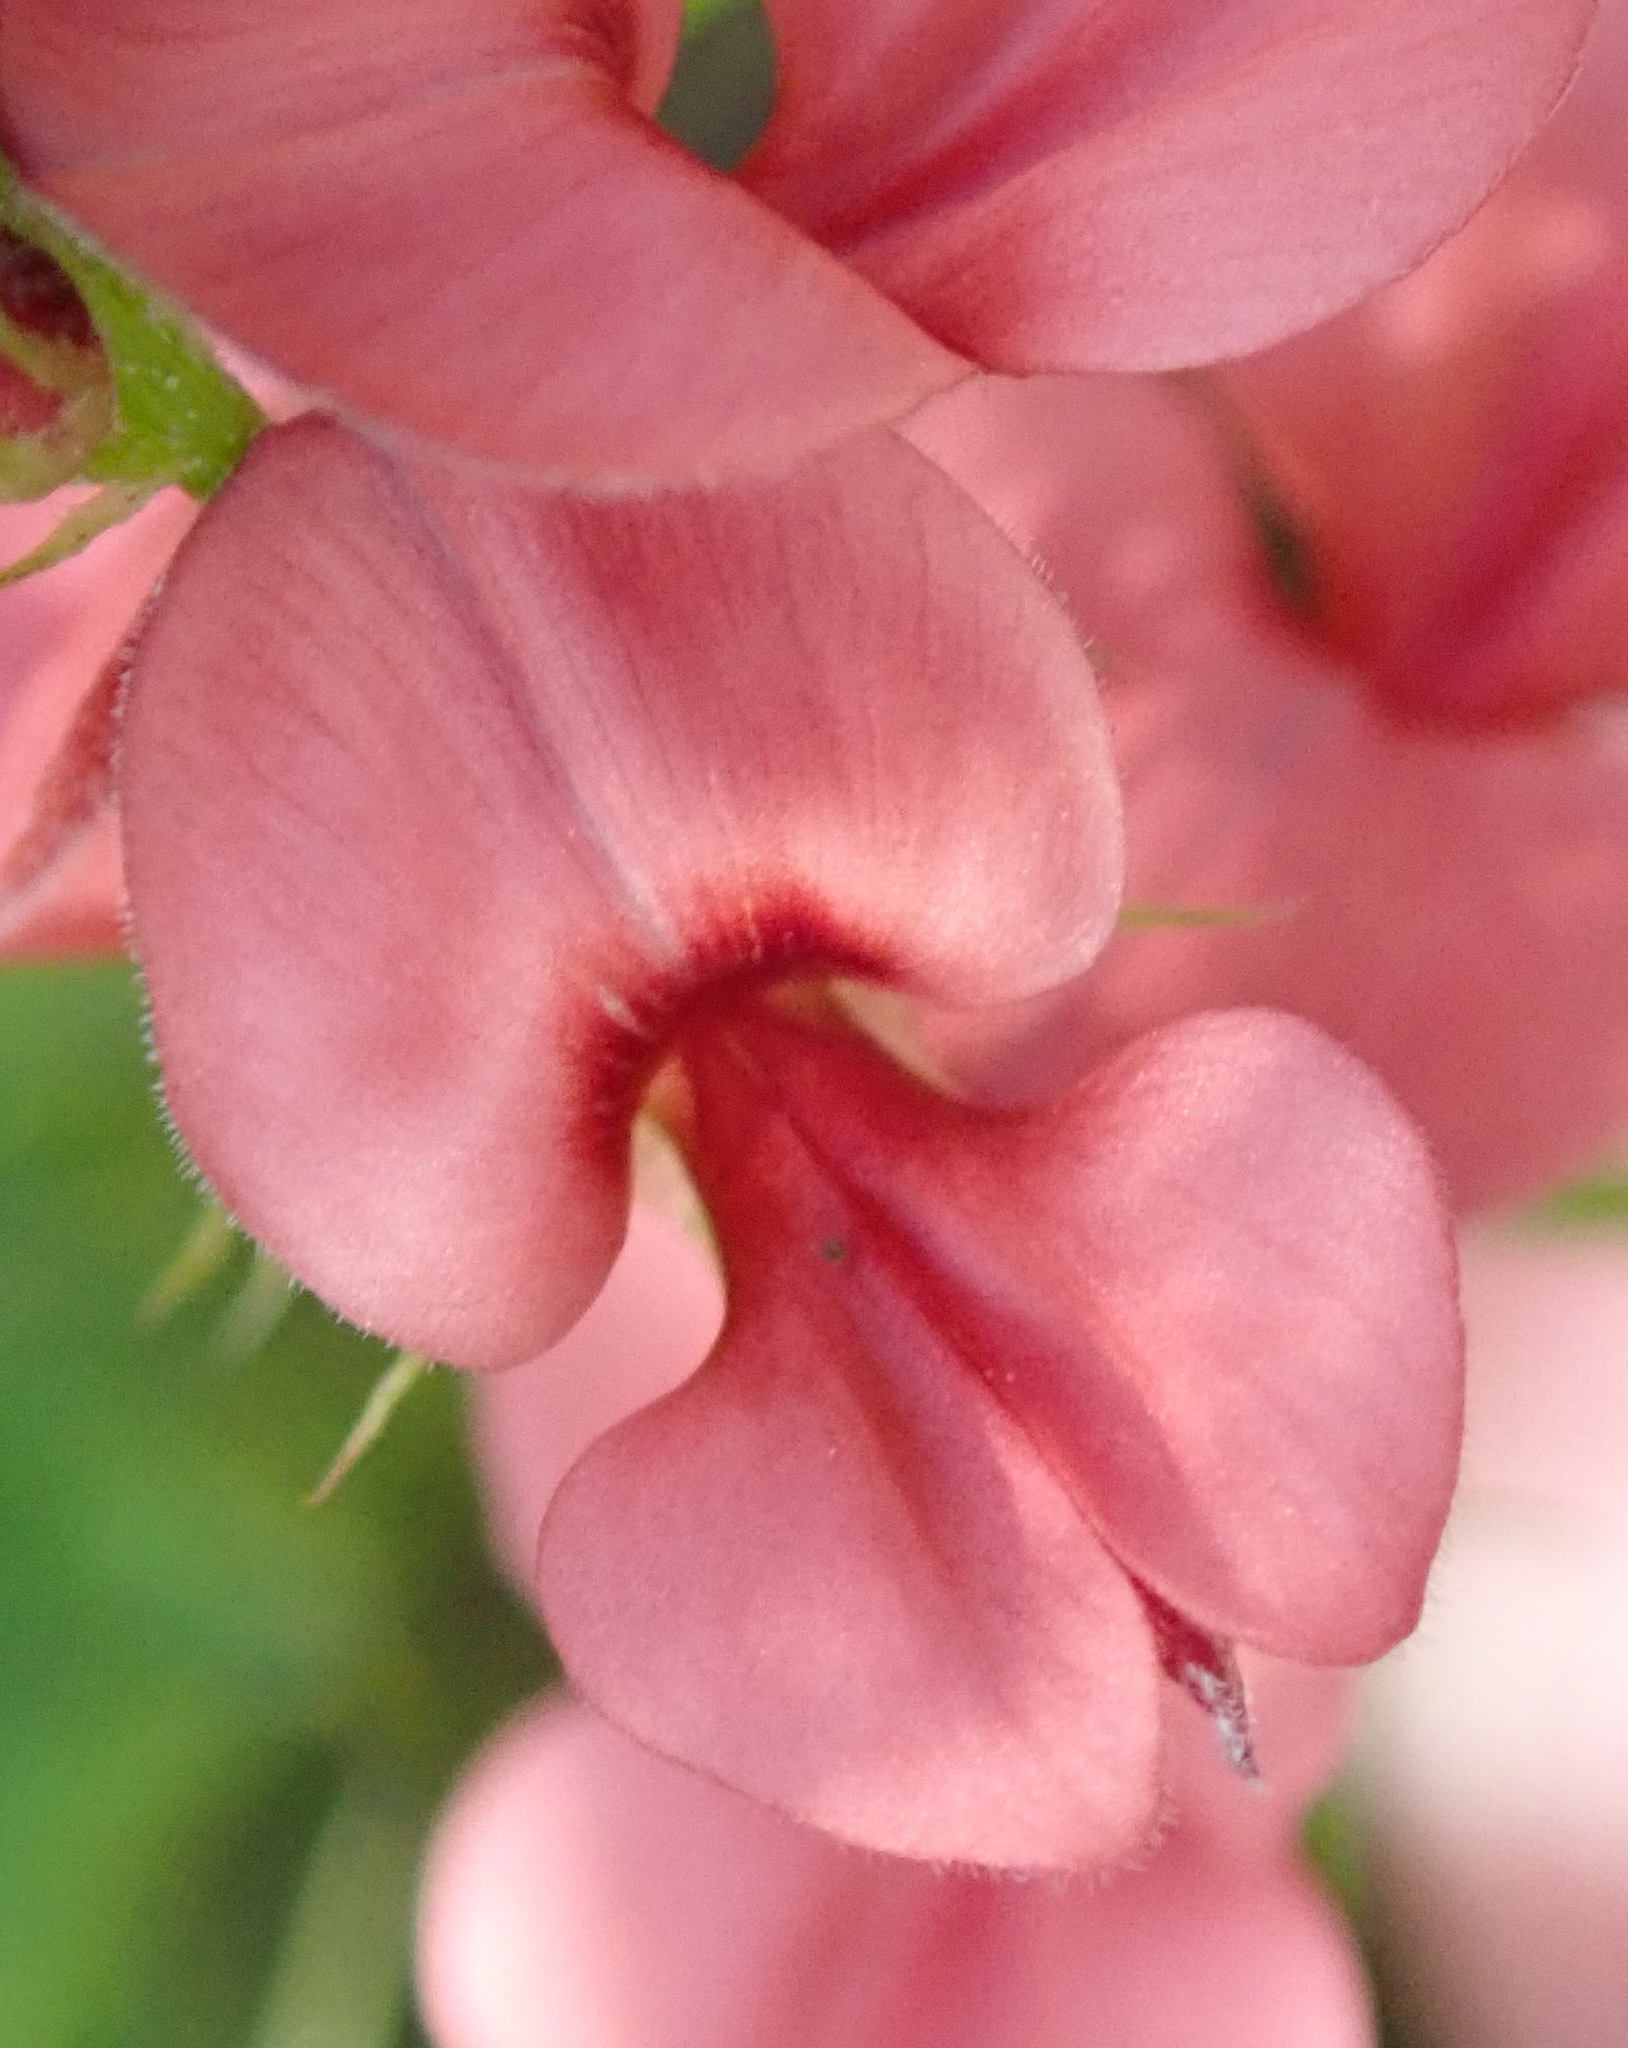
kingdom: Plantae
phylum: Tracheophyta
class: Magnoliopsida
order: Fabales
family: Fabaceae
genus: Indigofera
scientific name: Indigofera erecta
